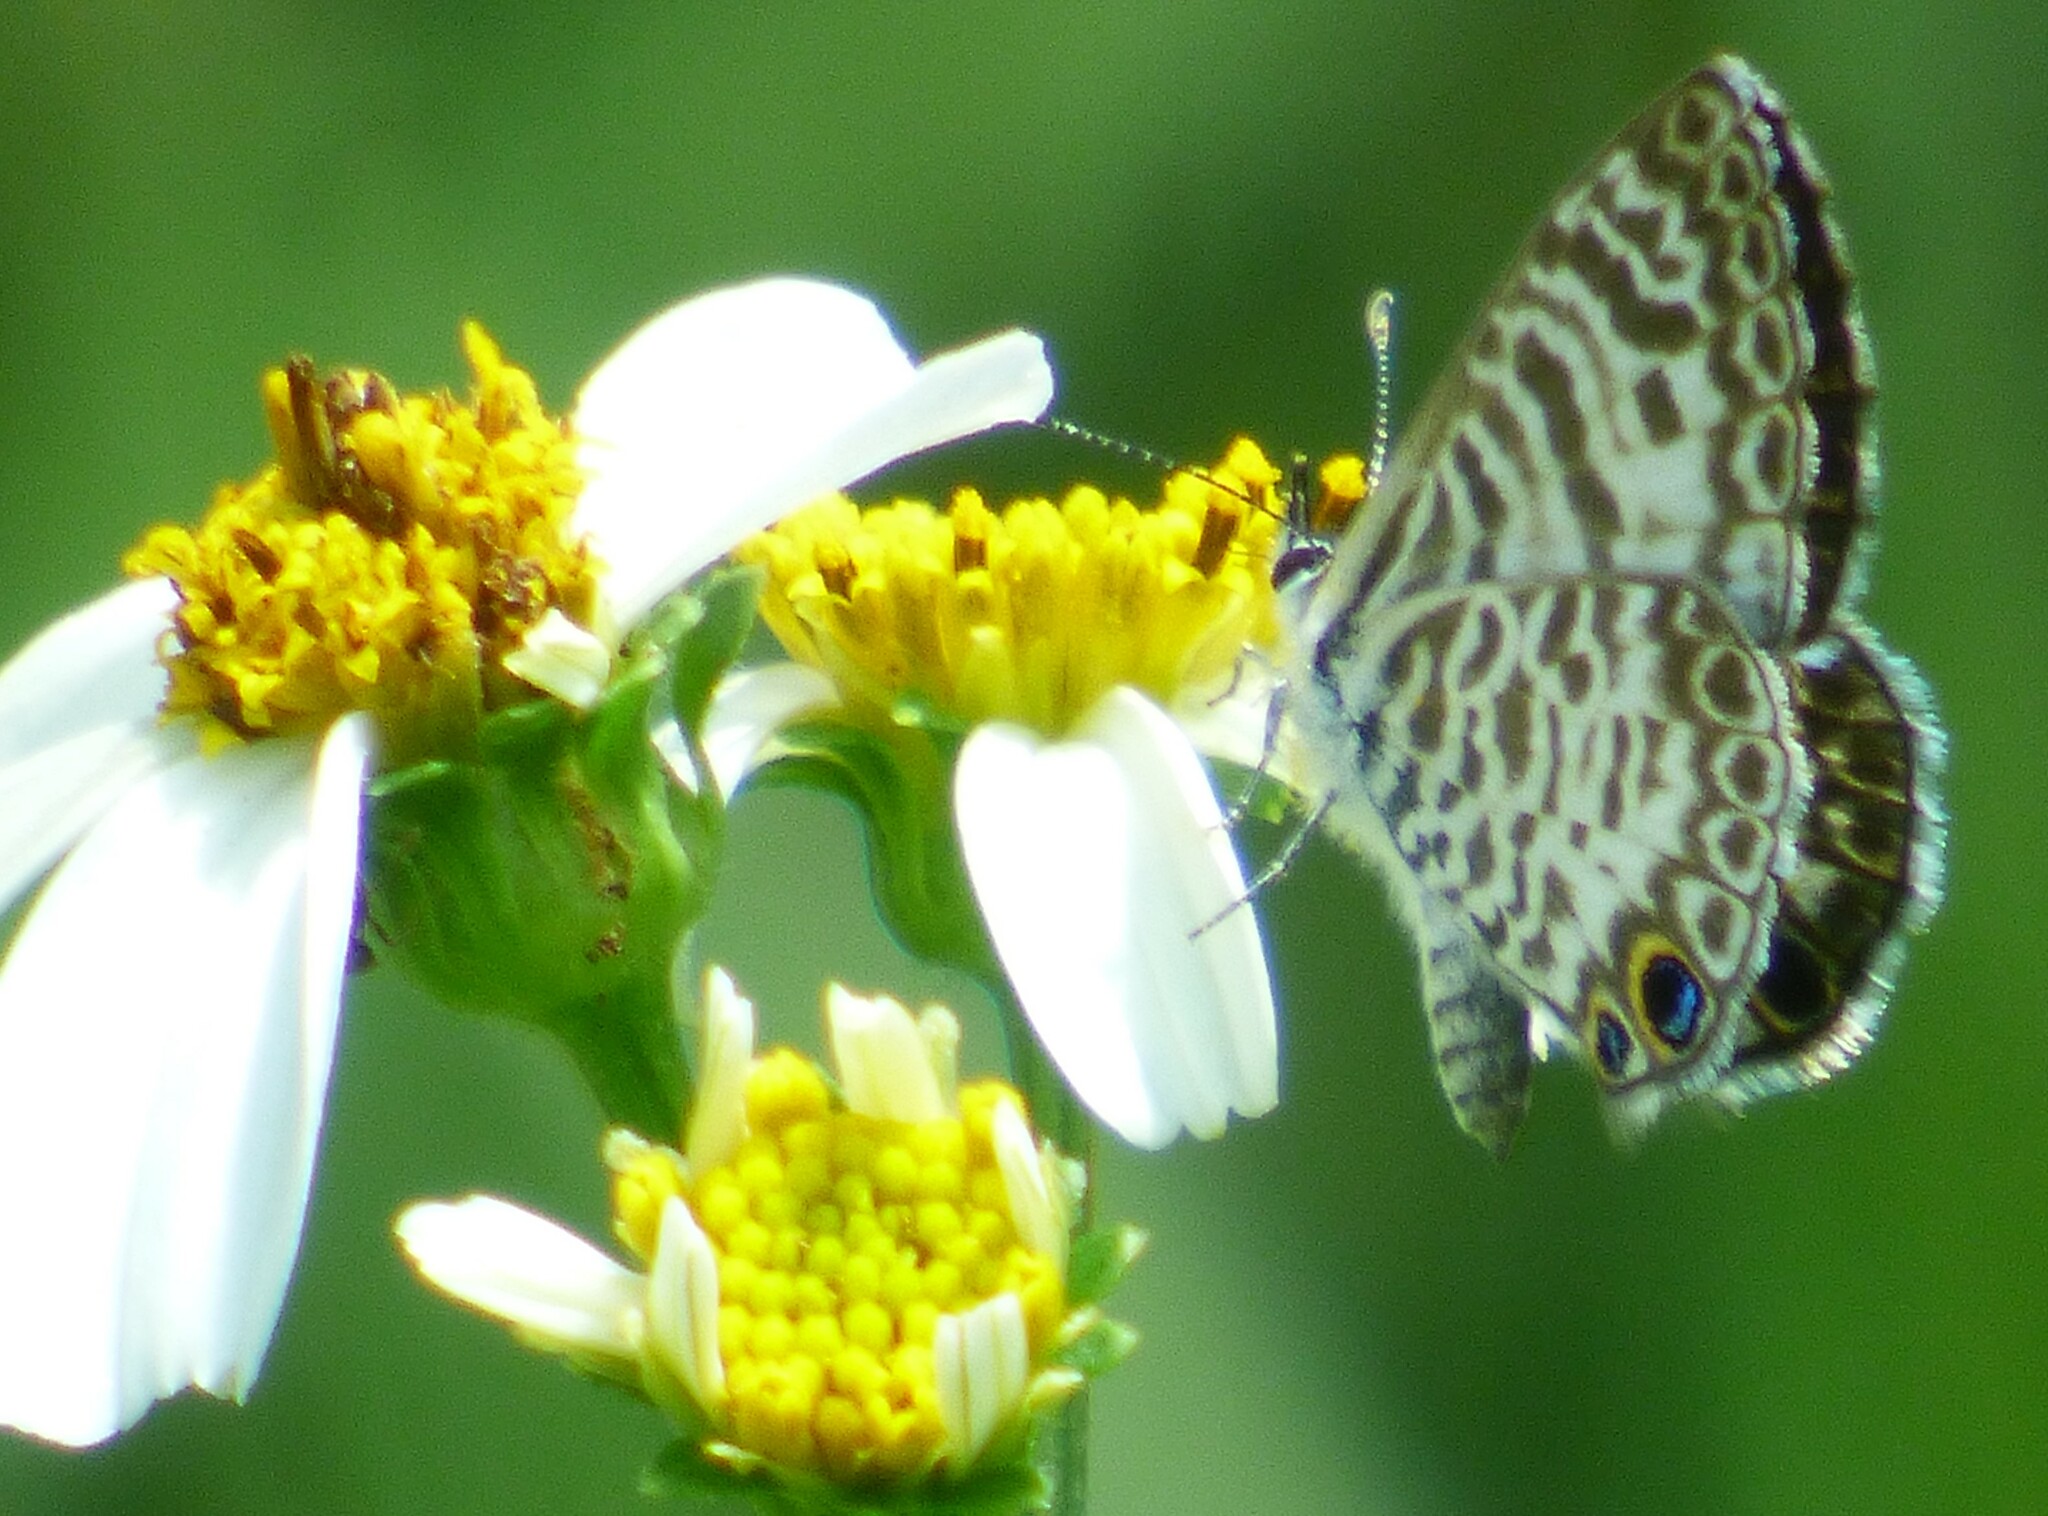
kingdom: Animalia
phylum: Arthropoda
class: Insecta
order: Lepidoptera
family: Lycaenidae
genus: Leptotes
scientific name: Leptotes cassius
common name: Cassius blue
